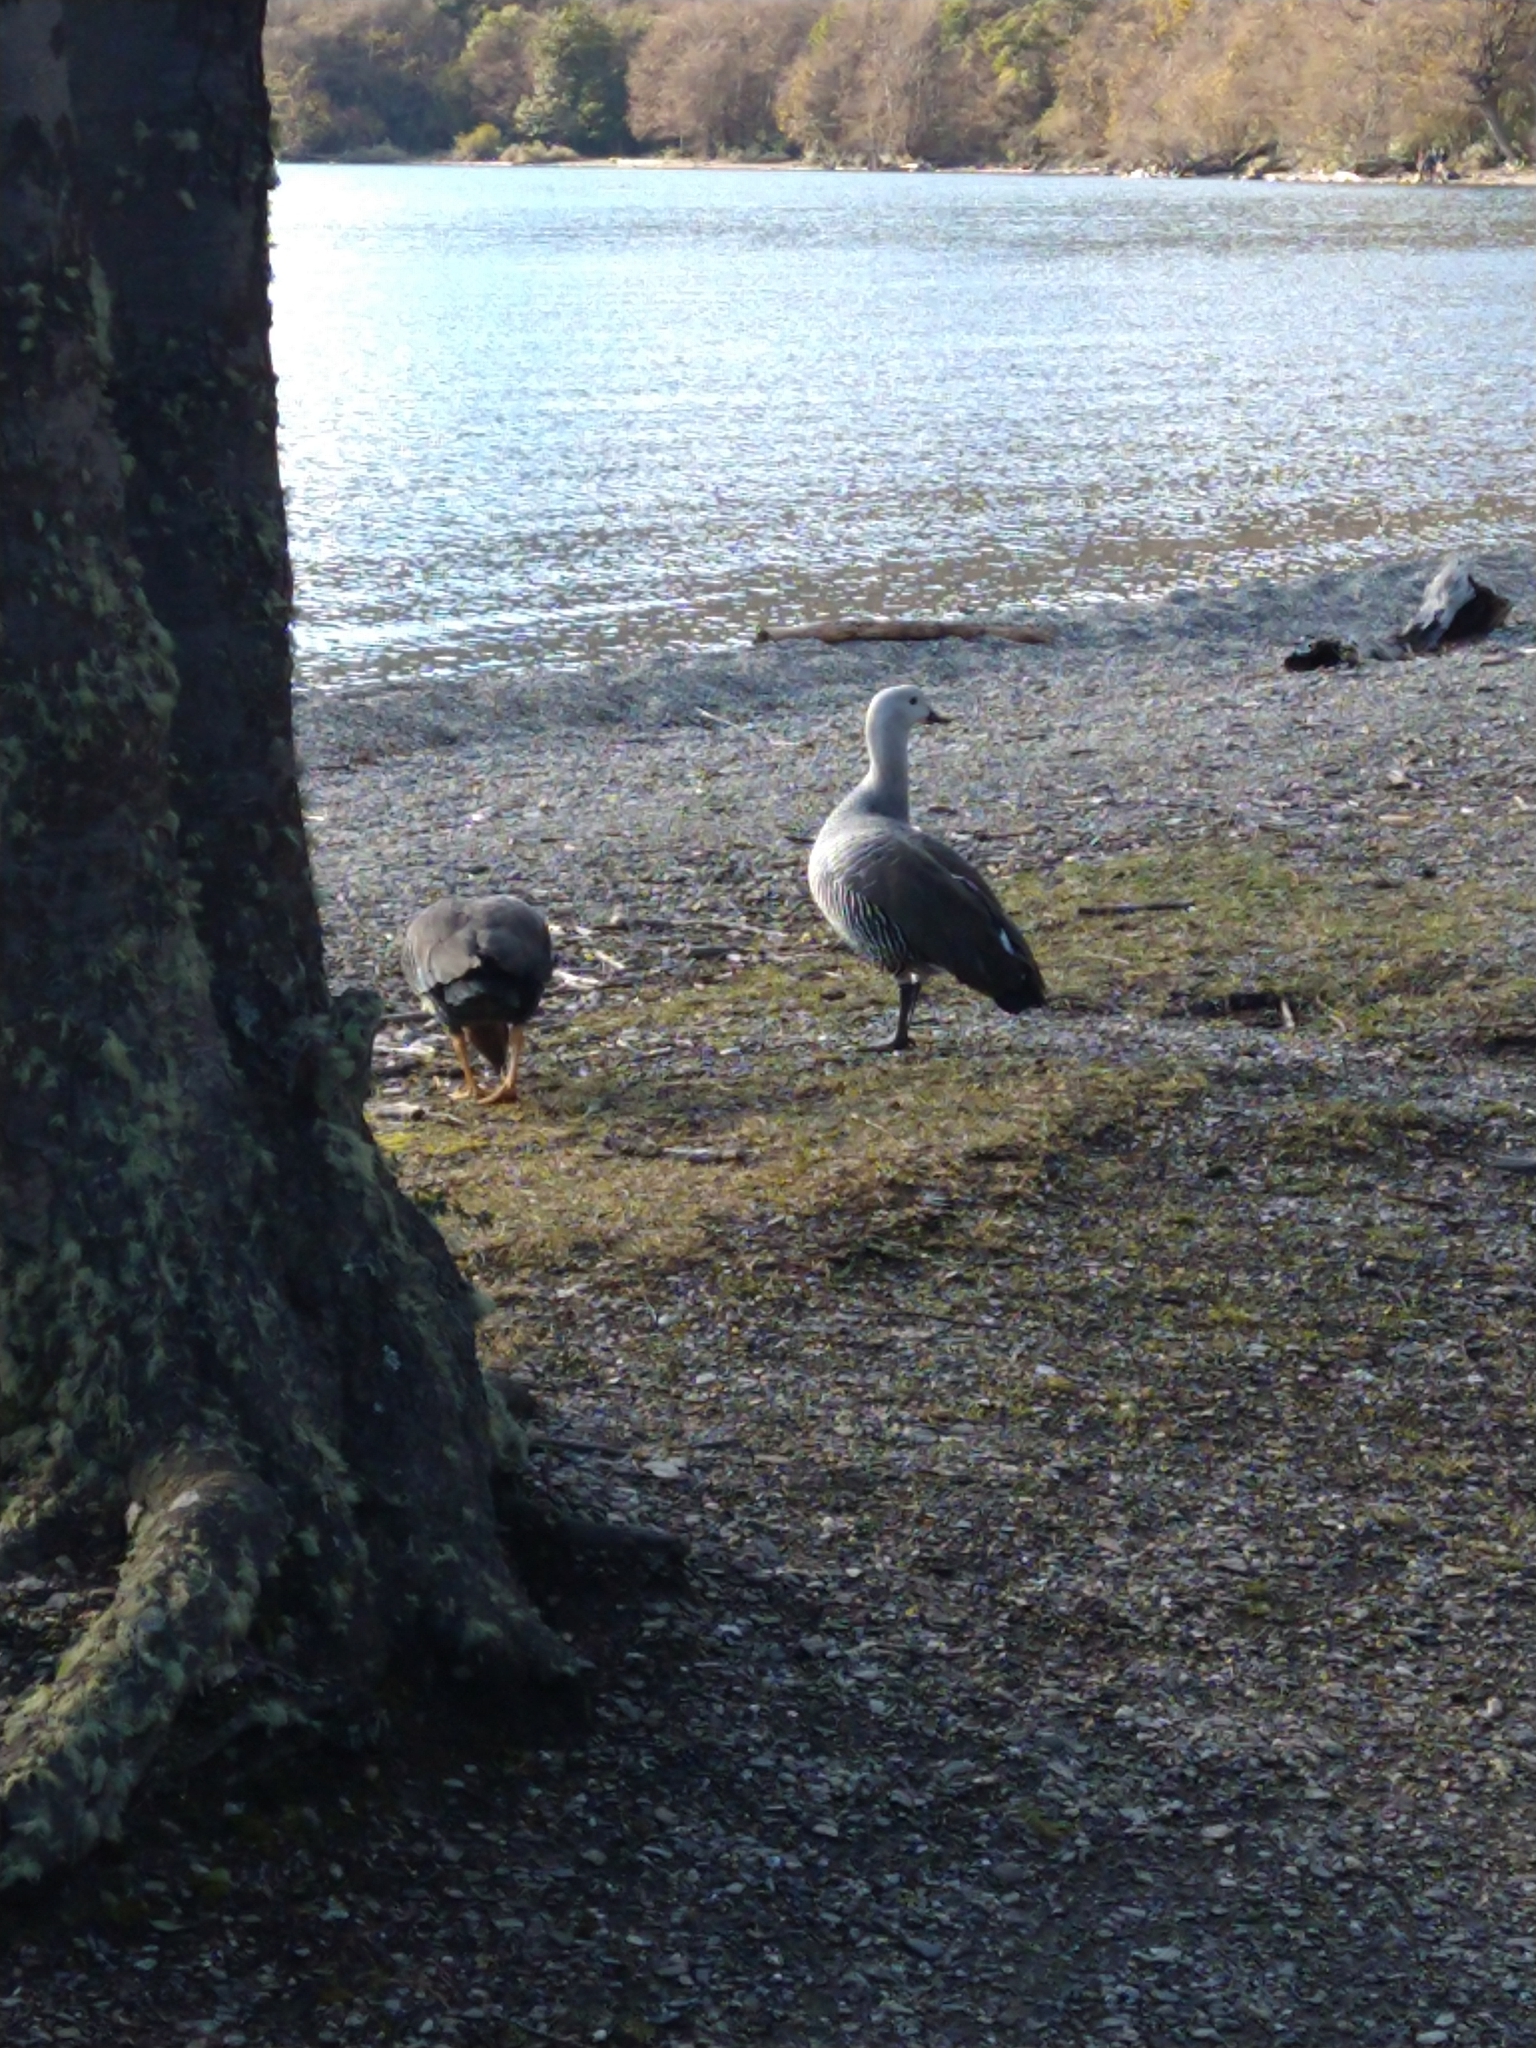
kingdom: Animalia
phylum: Chordata
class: Aves
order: Anseriformes
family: Anatidae
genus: Chloephaga
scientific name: Chloephaga picta
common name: Upland goose
